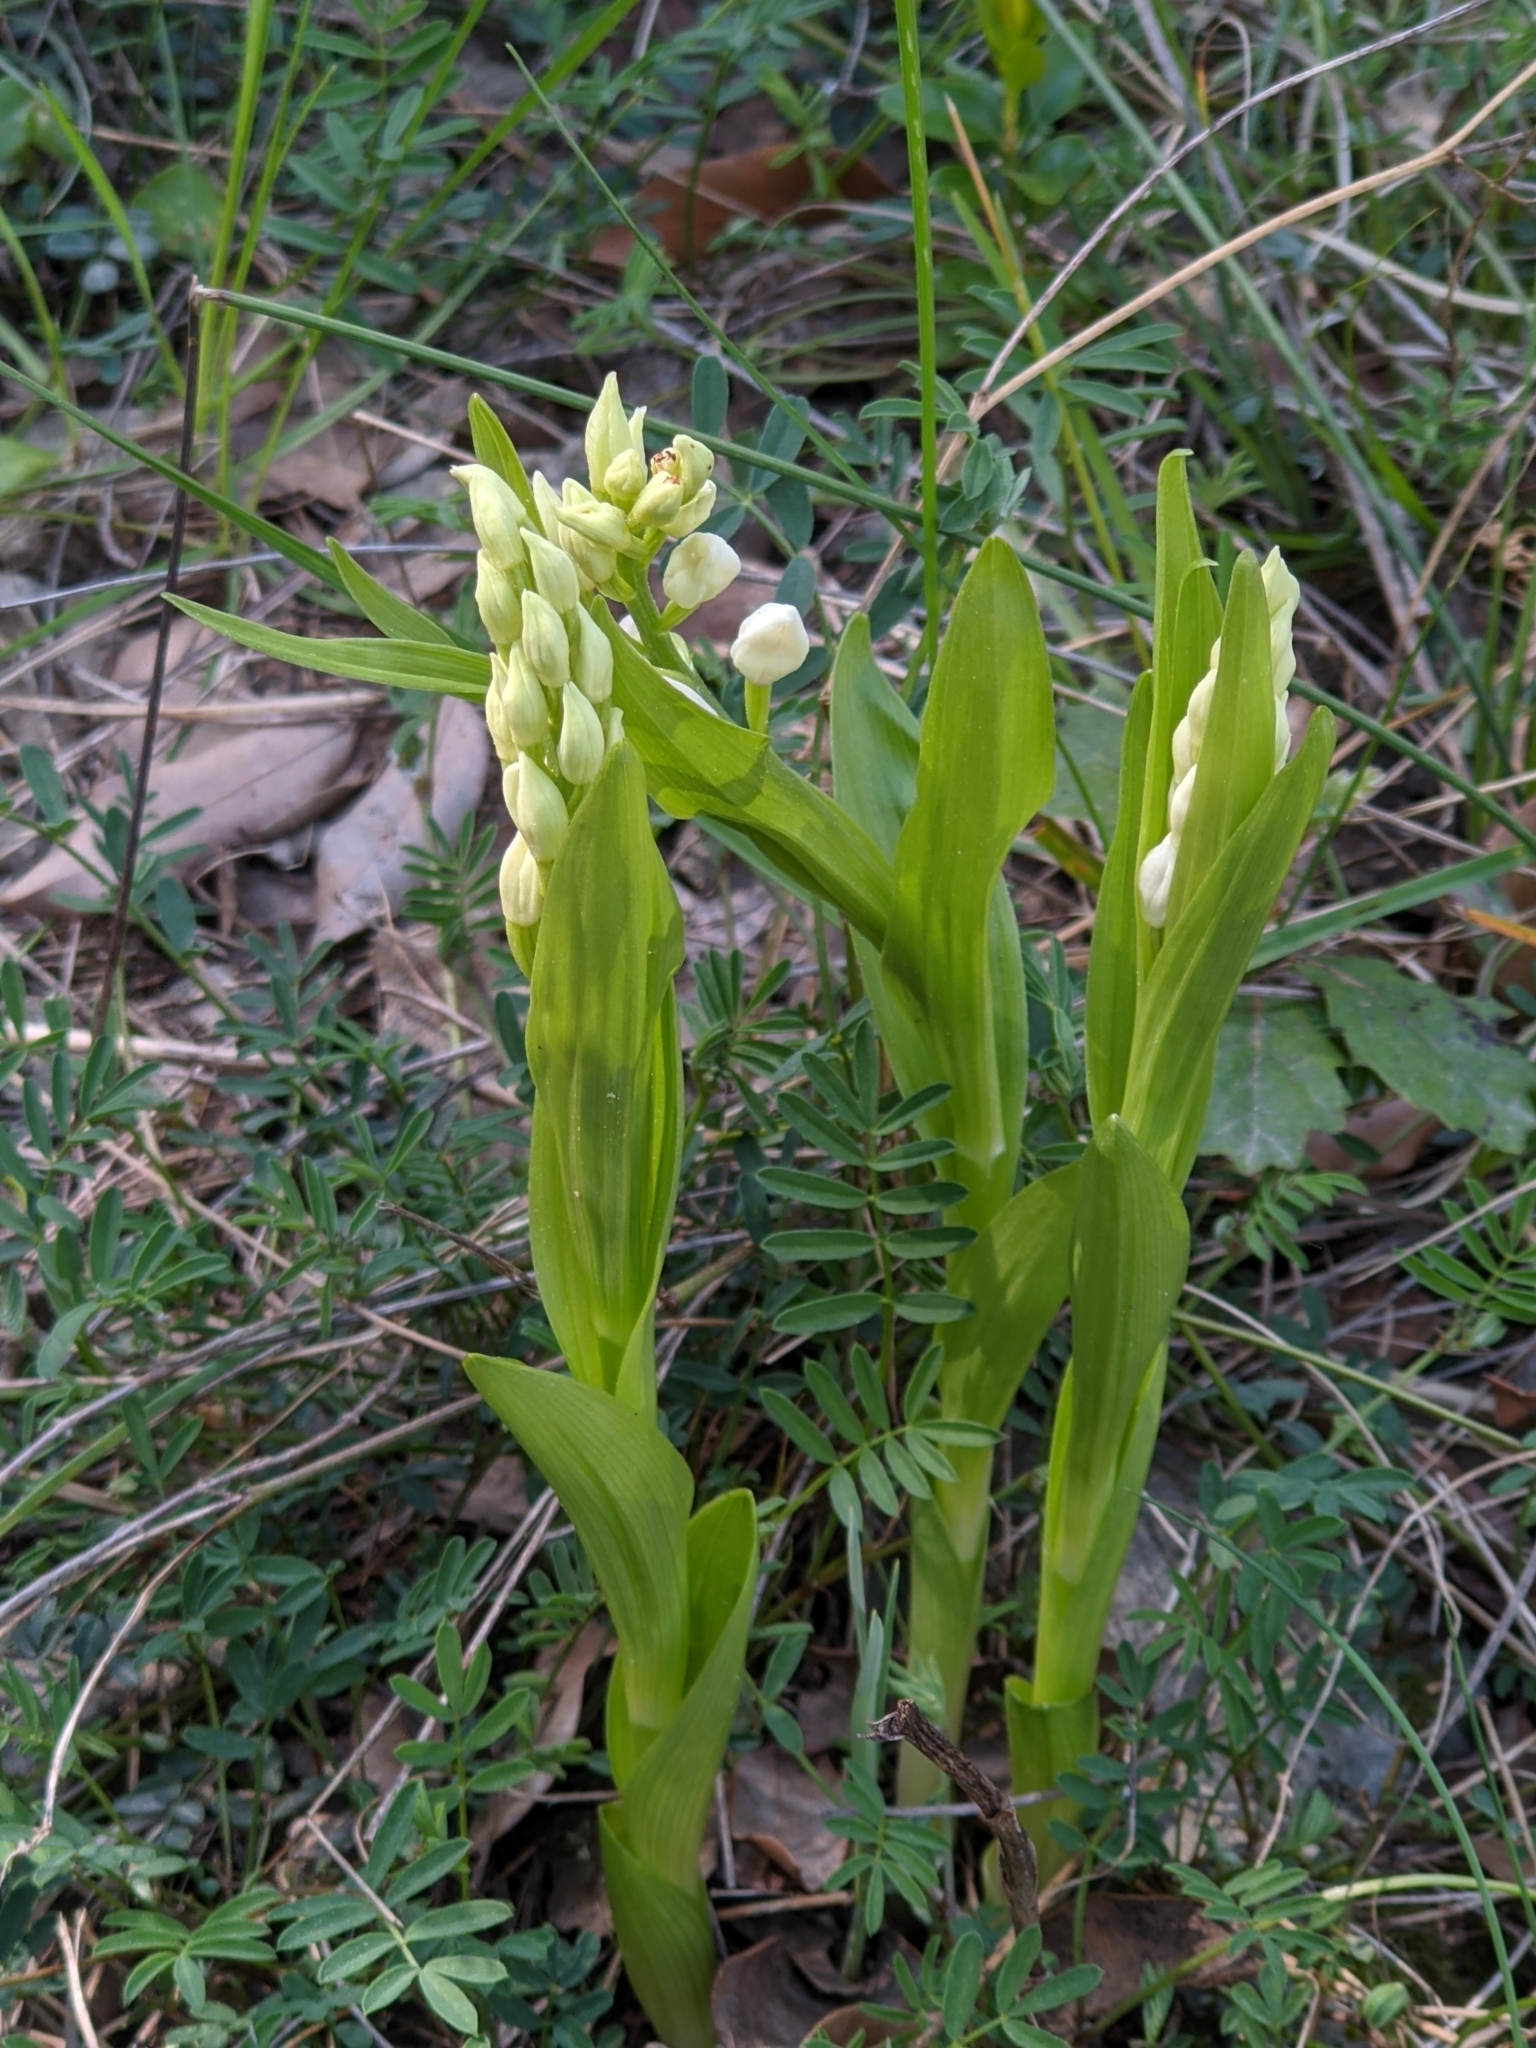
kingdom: Plantae
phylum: Tracheophyta
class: Liliopsida
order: Asparagales
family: Orchidaceae
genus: Cephalanthera
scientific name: Cephalanthera longifolia
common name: Narrow-leaved helleborine
